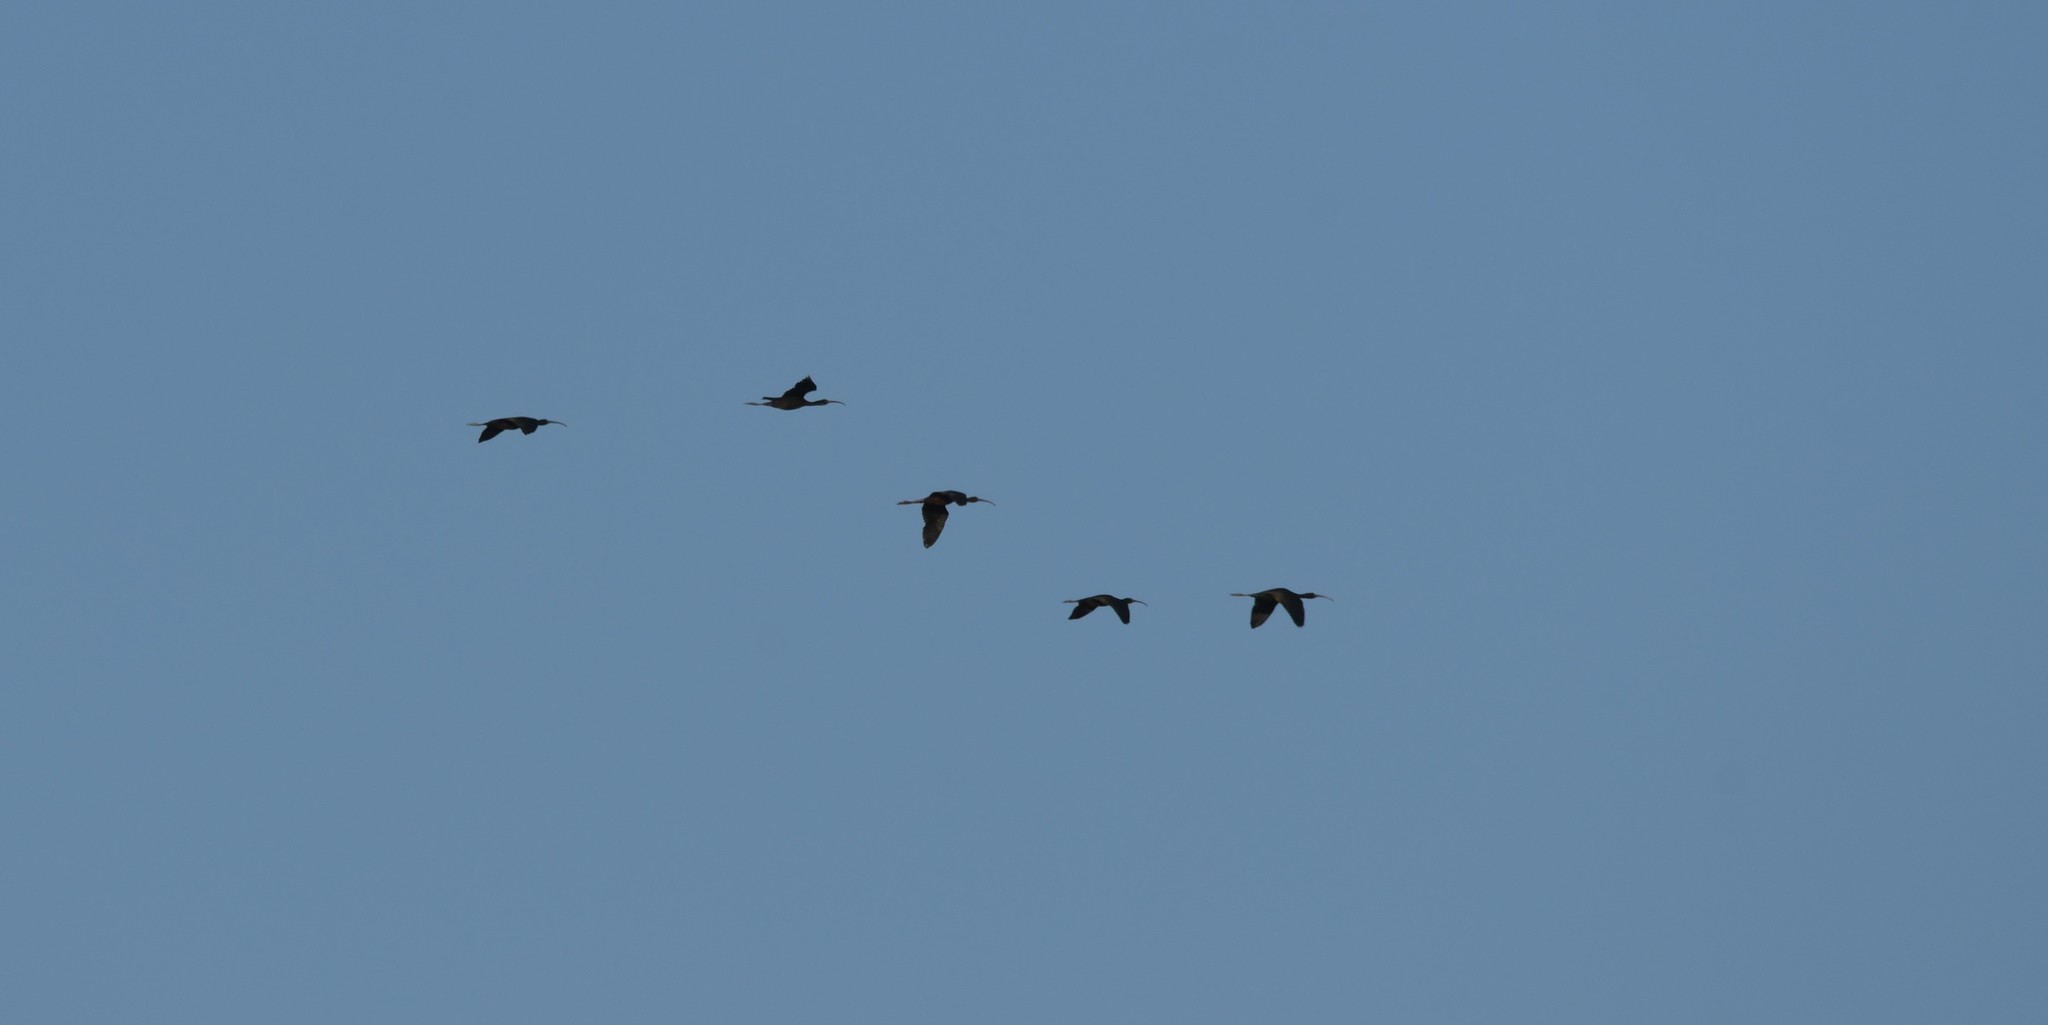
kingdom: Animalia
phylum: Chordata
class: Aves
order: Pelecaniformes
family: Threskiornithidae
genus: Plegadis
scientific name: Plegadis falcinellus
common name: Glossy ibis
